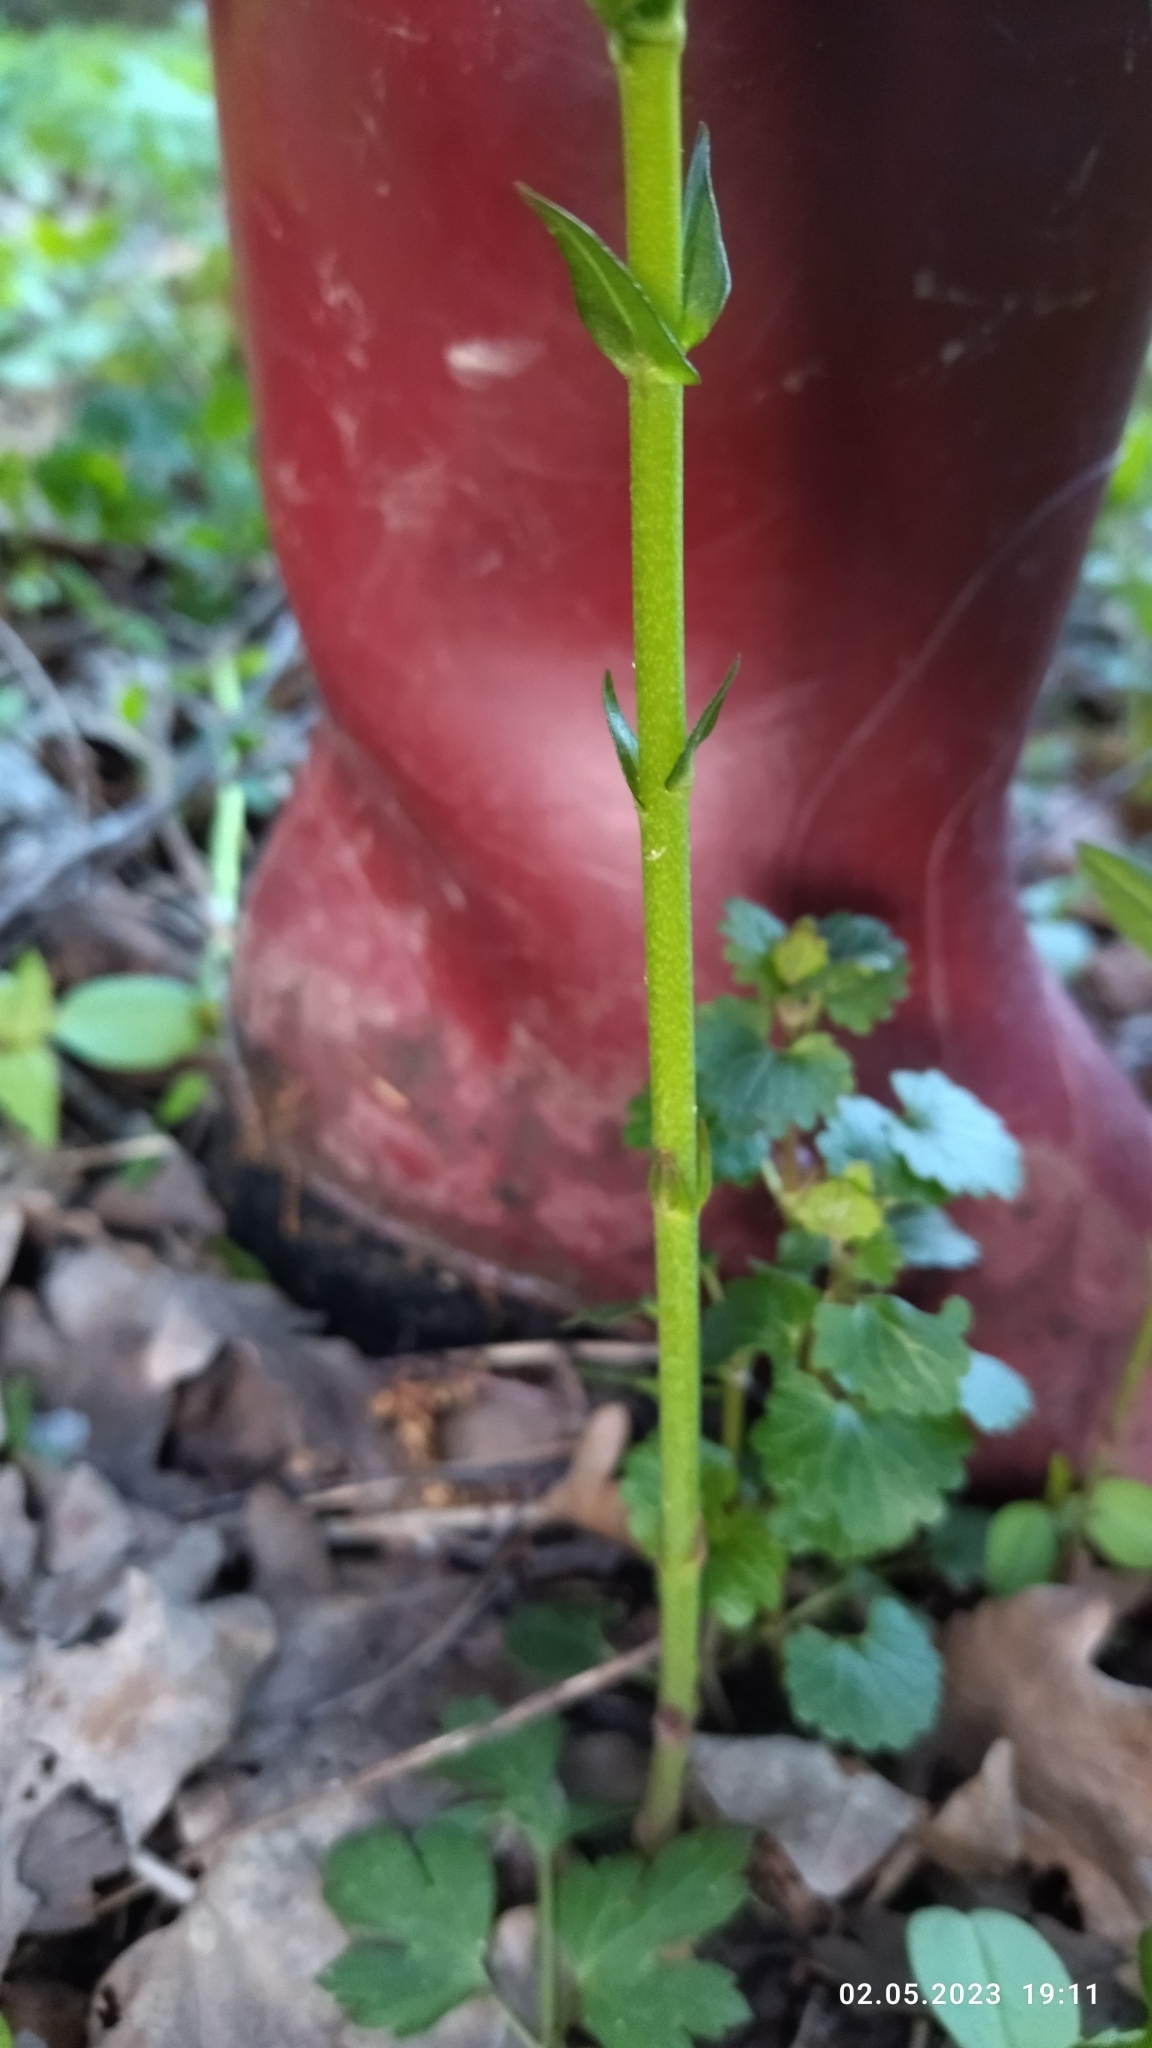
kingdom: Plantae
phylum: Tracheophyta
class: Magnoliopsida
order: Ericales
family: Primulaceae
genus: Lysimachia
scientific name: Lysimachia vulgaris
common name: Yellow loosestrife
